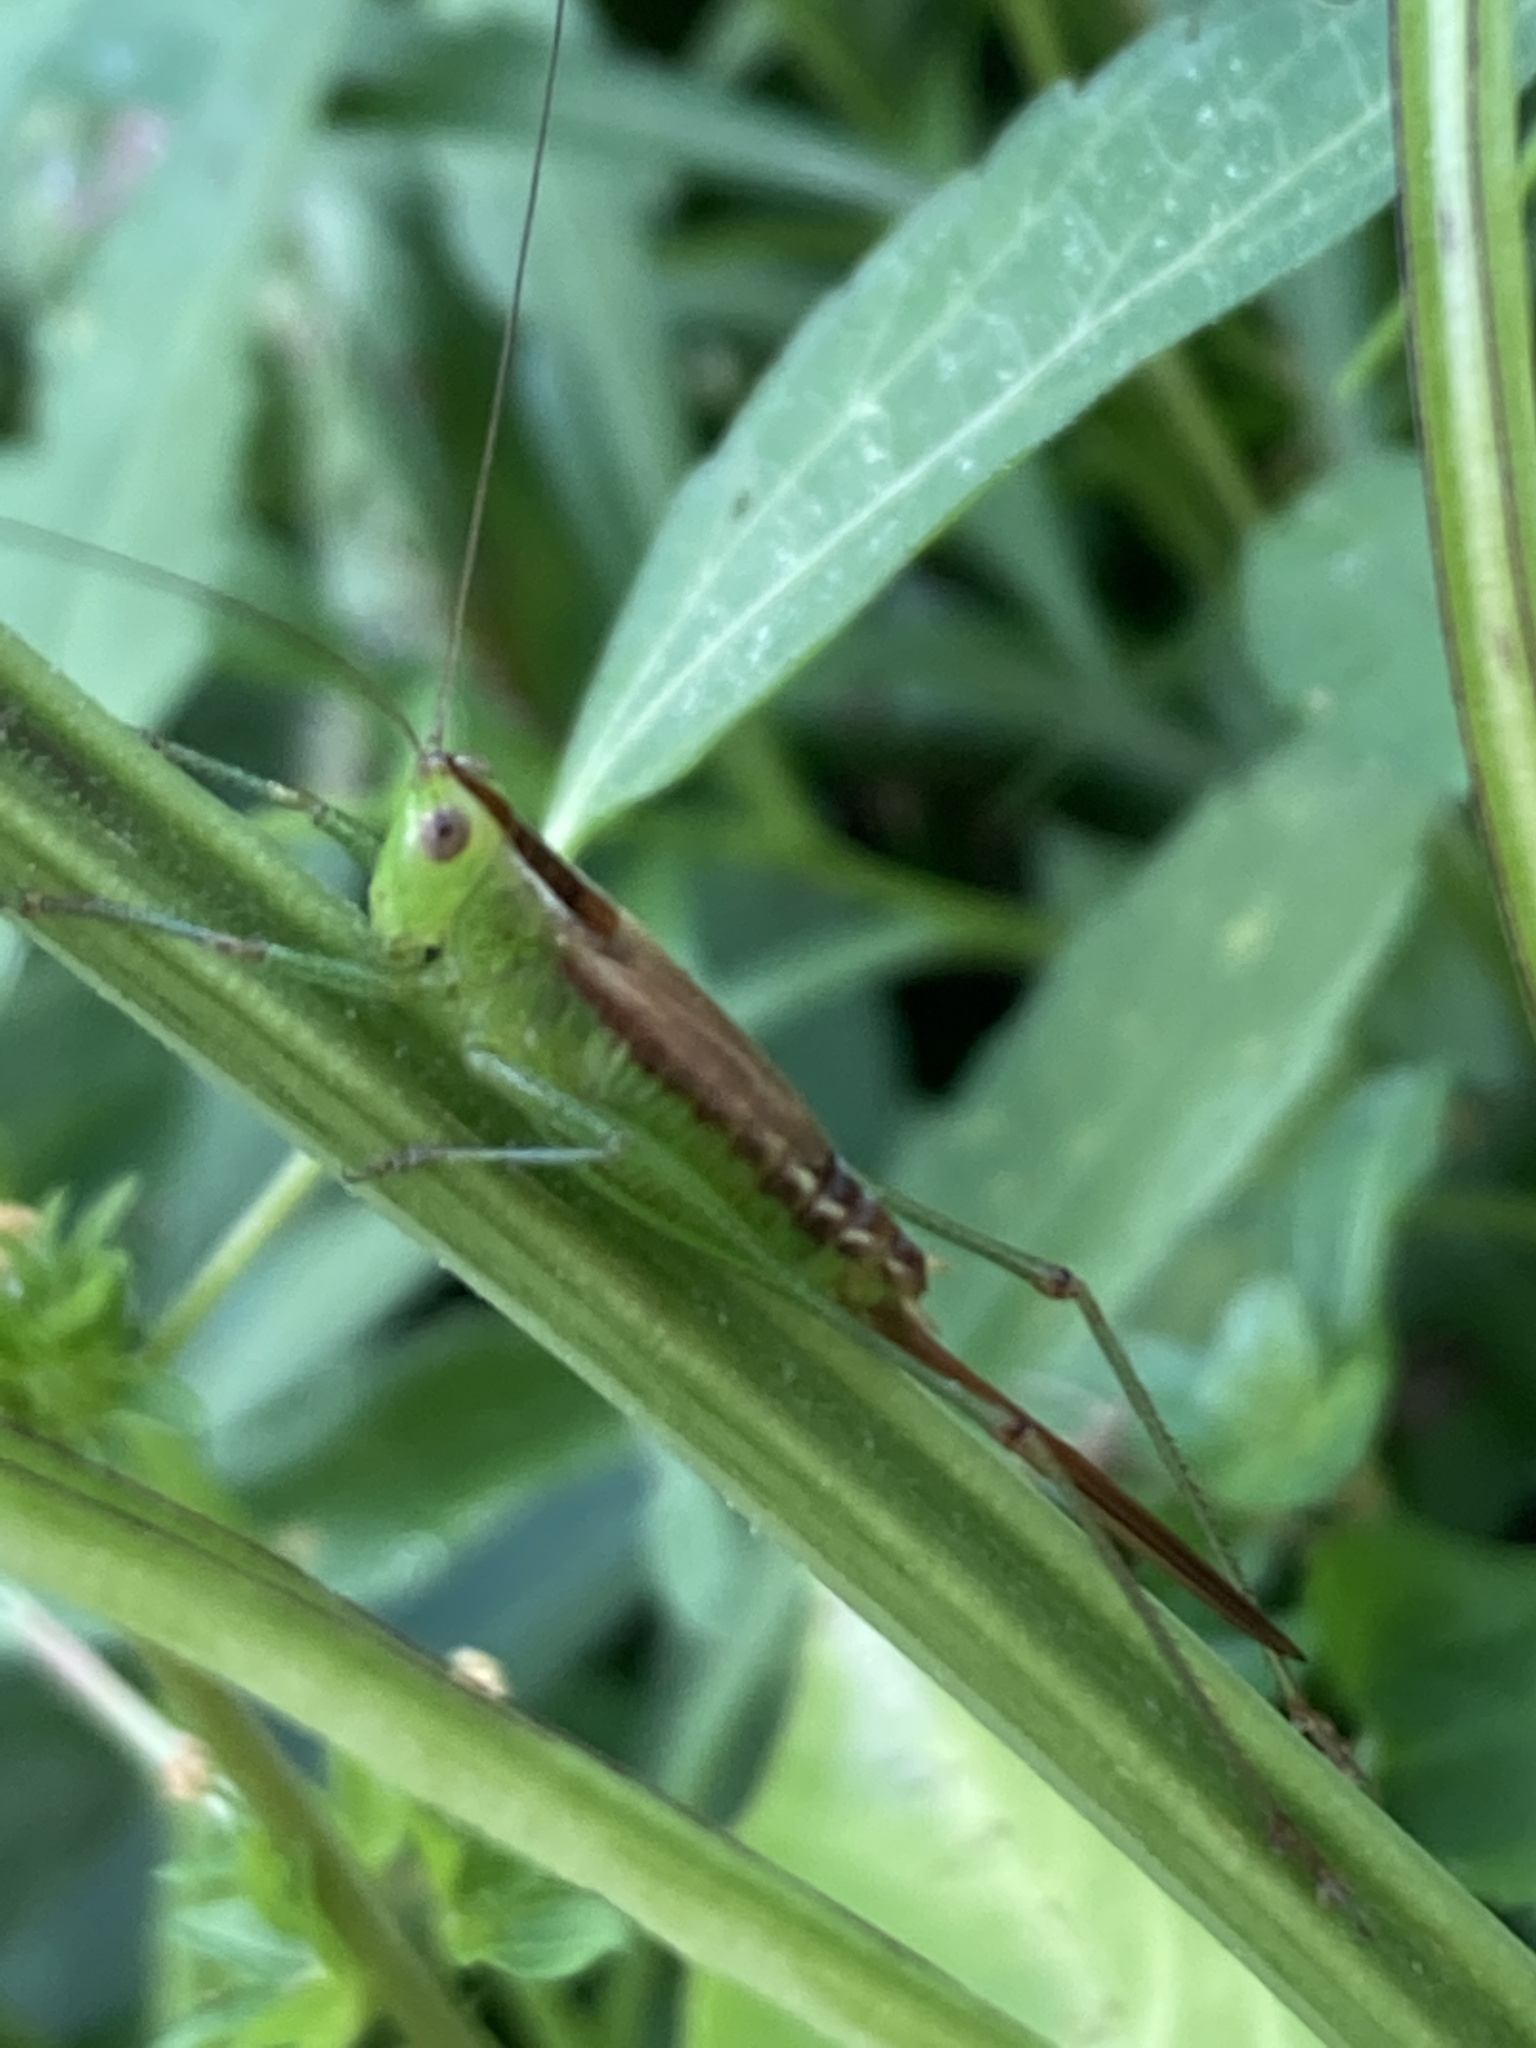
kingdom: Animalia
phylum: Arthropoda
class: Insecta
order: Orthoptera
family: Tettigoniidae
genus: Conocephalus
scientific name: Conocephalus brevipennis
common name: Short-winged meadow katydid
